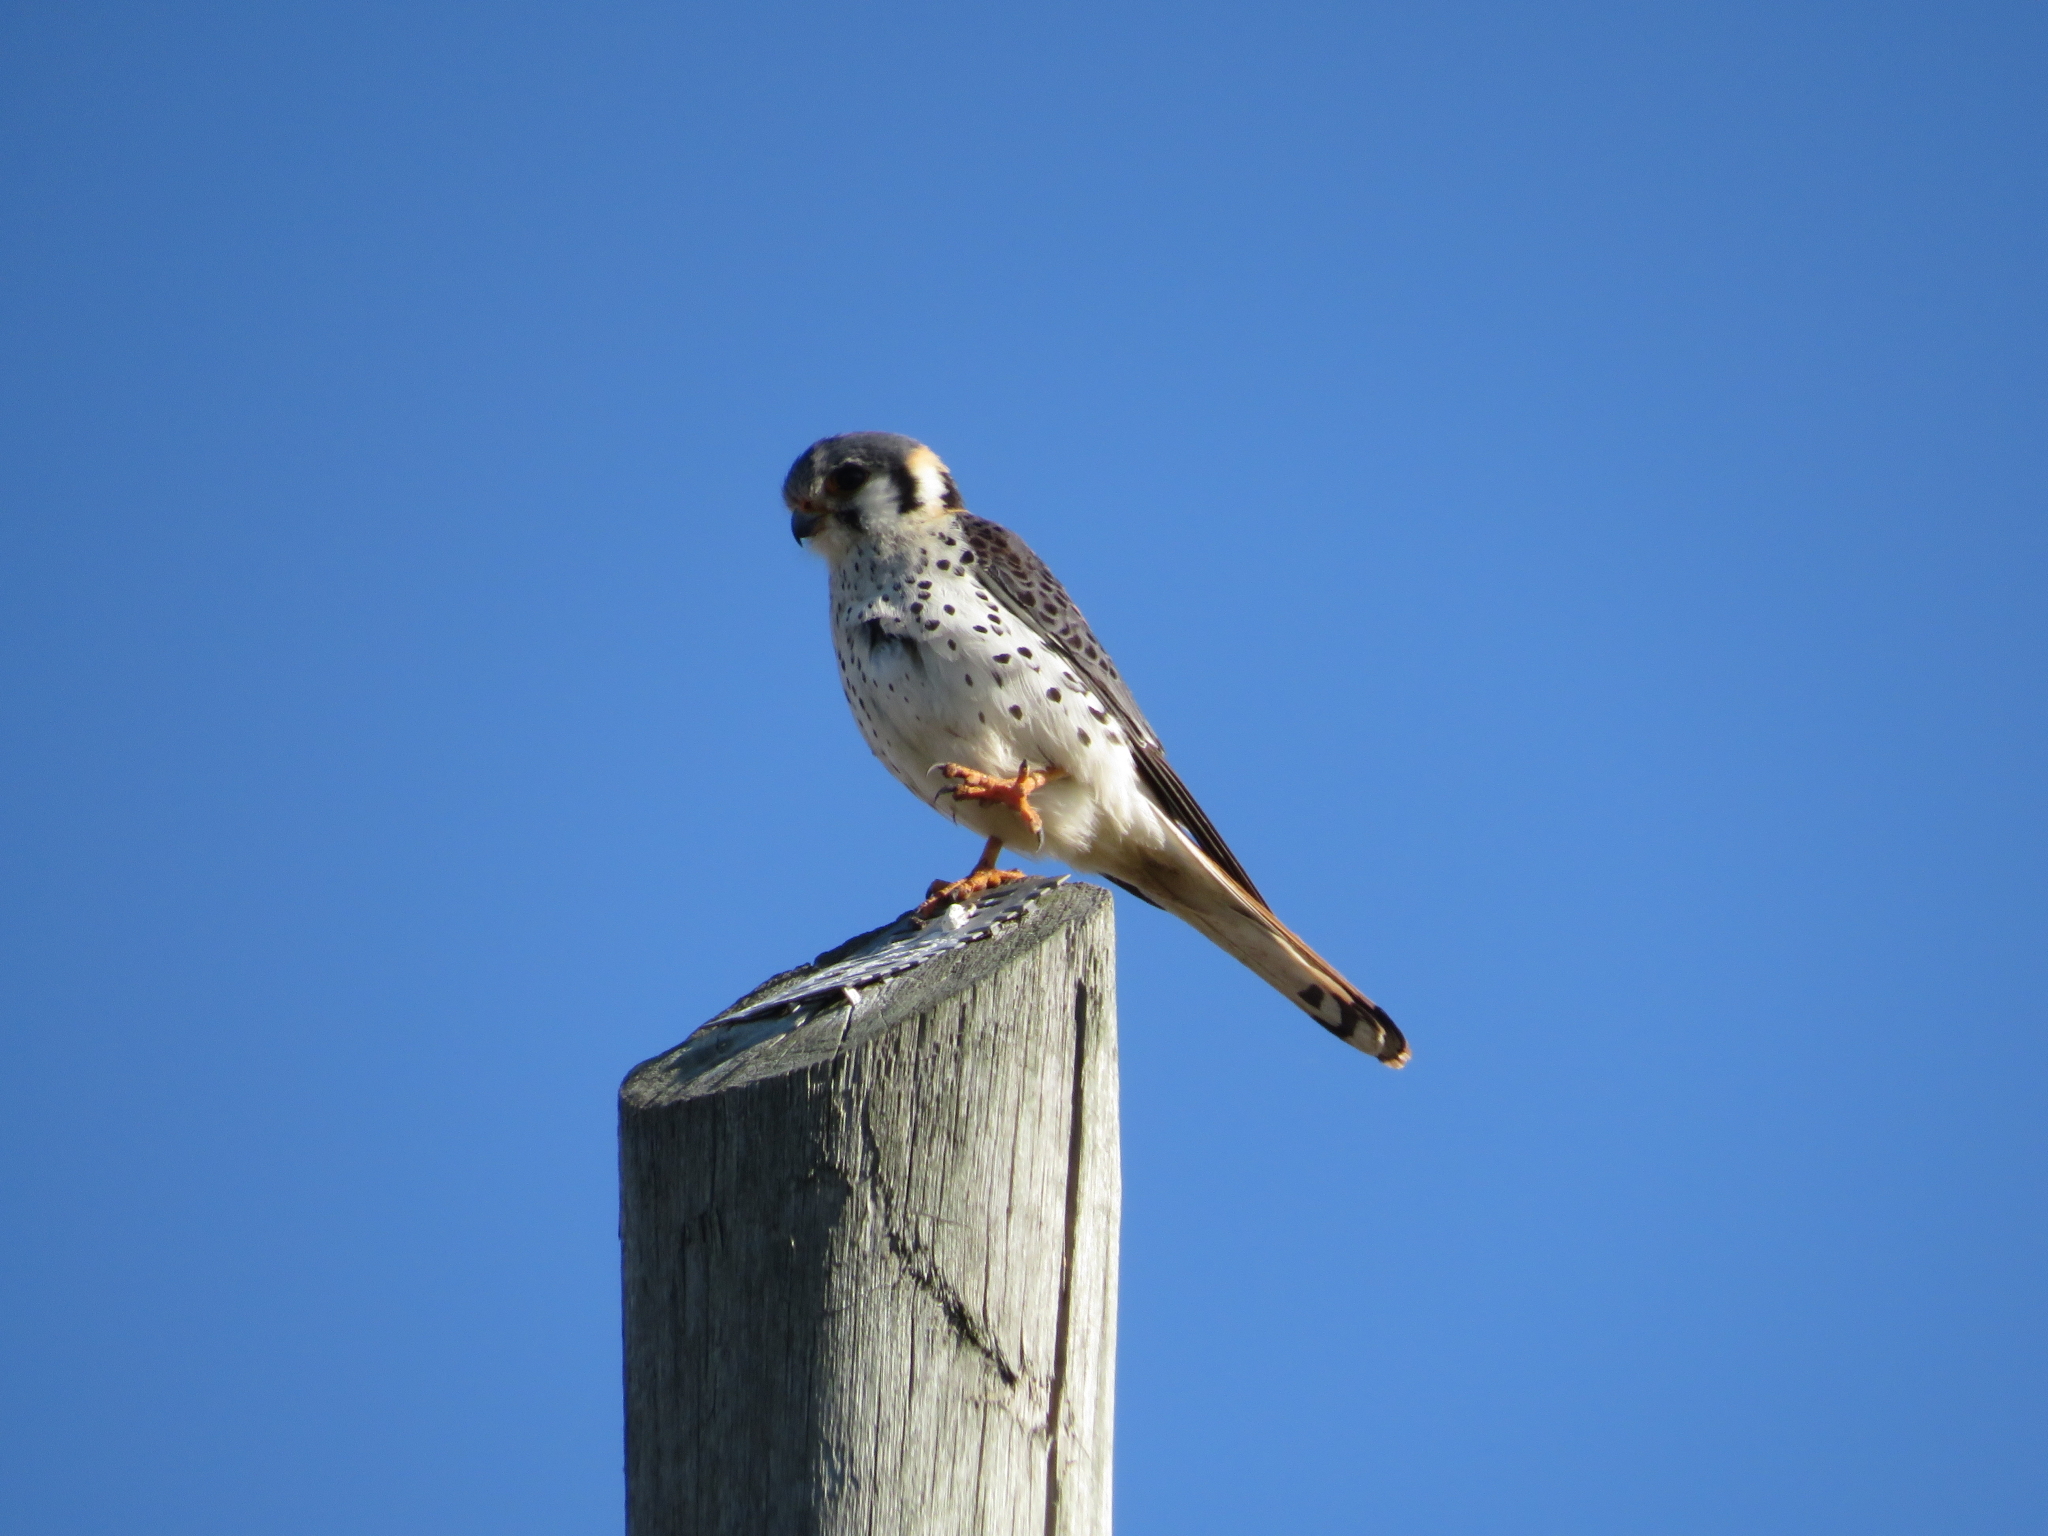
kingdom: Animalia
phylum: Chordata
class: Aves
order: Falconiformes
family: Falconidae
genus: Falco
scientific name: Falco sparverius
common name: American kestrel
